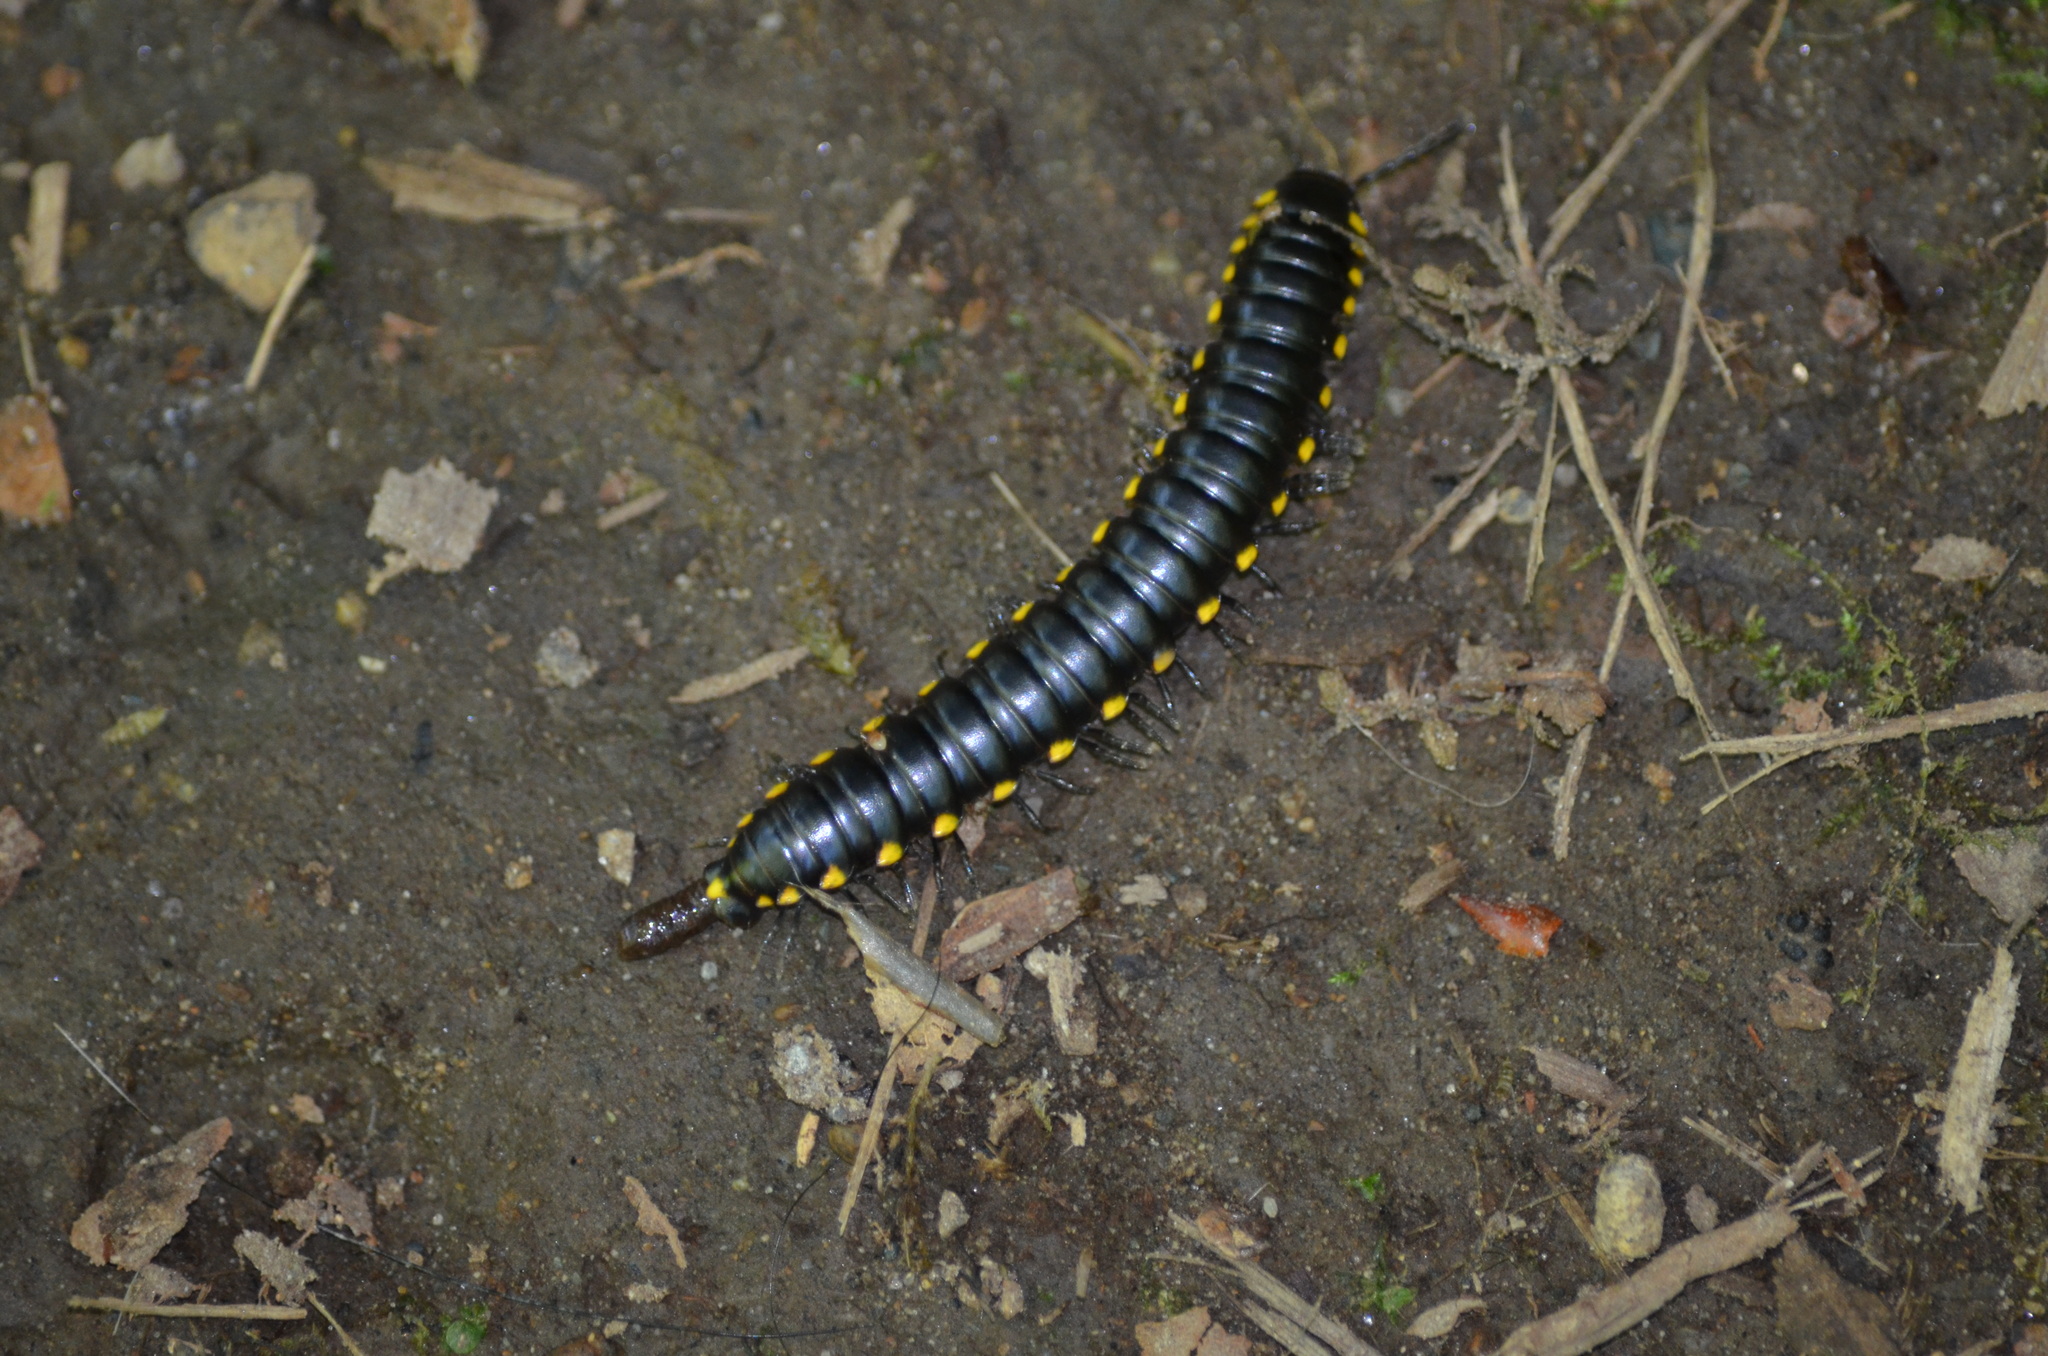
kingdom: Animalia
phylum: Arthropoda
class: Diplopoda
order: Polydesmida
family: Xystodesmidae
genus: Harpaphe
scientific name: Harpaphe haydeniana
